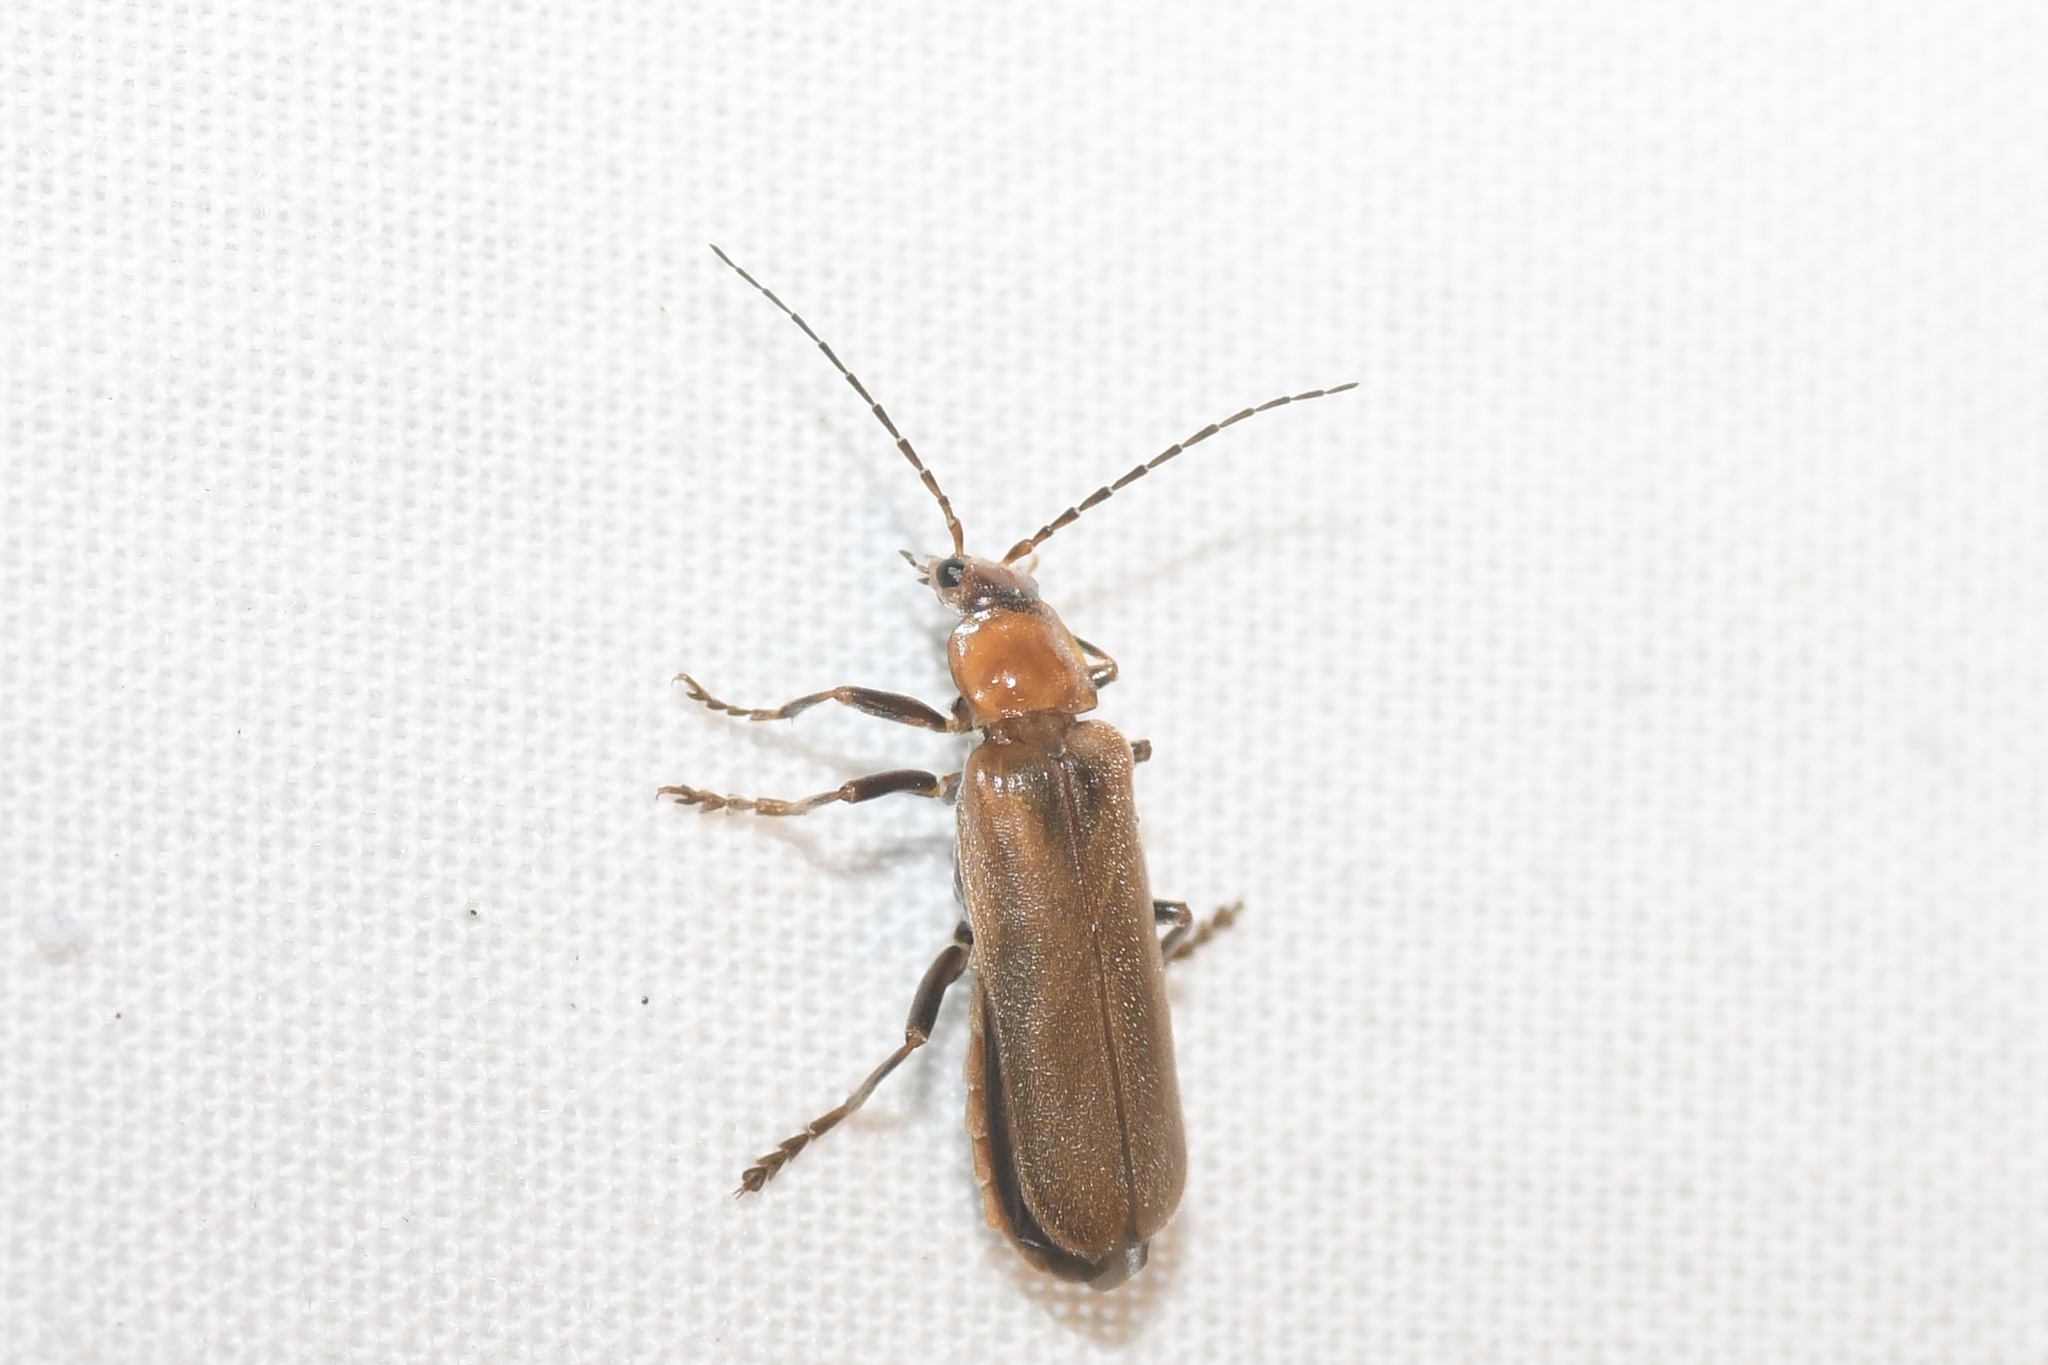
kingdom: Animalia
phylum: Arthropoda
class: Insecta
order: Coleoptera
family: Cantharidae
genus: Cantharis
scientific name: Cantharis rufa
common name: Red-spotted soldier beetle
